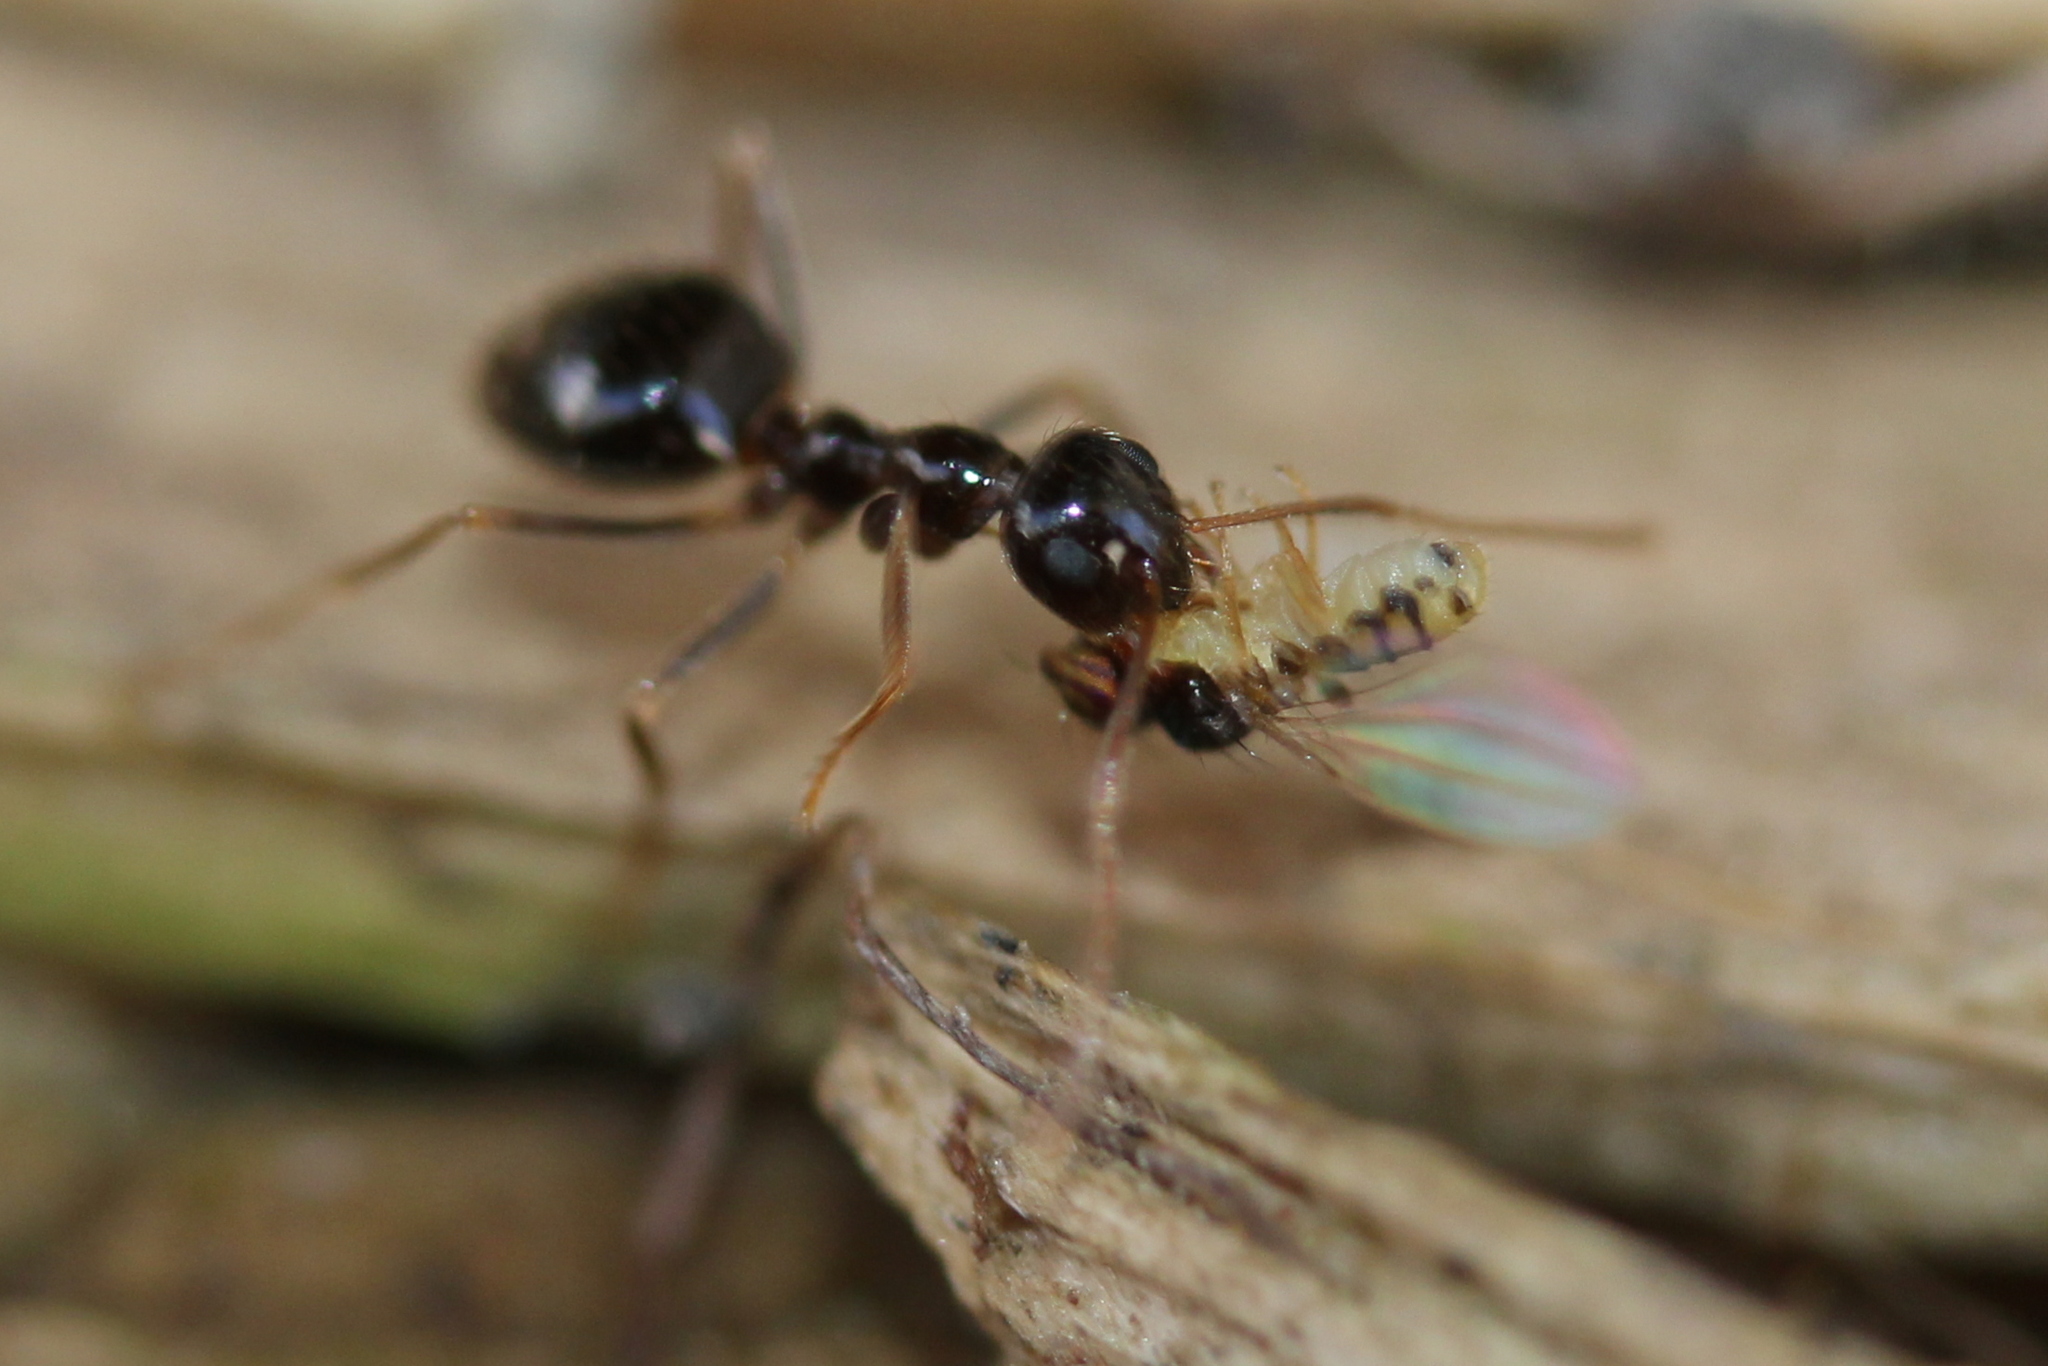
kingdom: Animalia
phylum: Arthropoda
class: Insecta
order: Hymenoptera
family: Formicidae
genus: Prenolepis
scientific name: Prenolepis imparis
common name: Small honey ant
